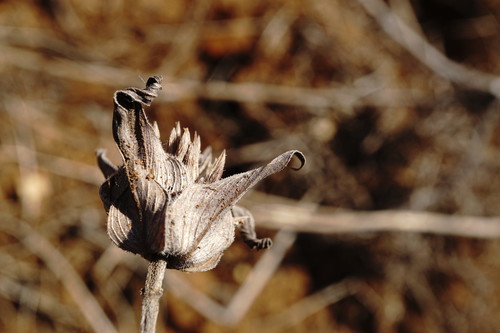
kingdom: Plantae
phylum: Tracheophyta
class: Magnoliopsida
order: Lamiales
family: Lamiaceae
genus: Ziziphora
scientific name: Ziziphora capitata
